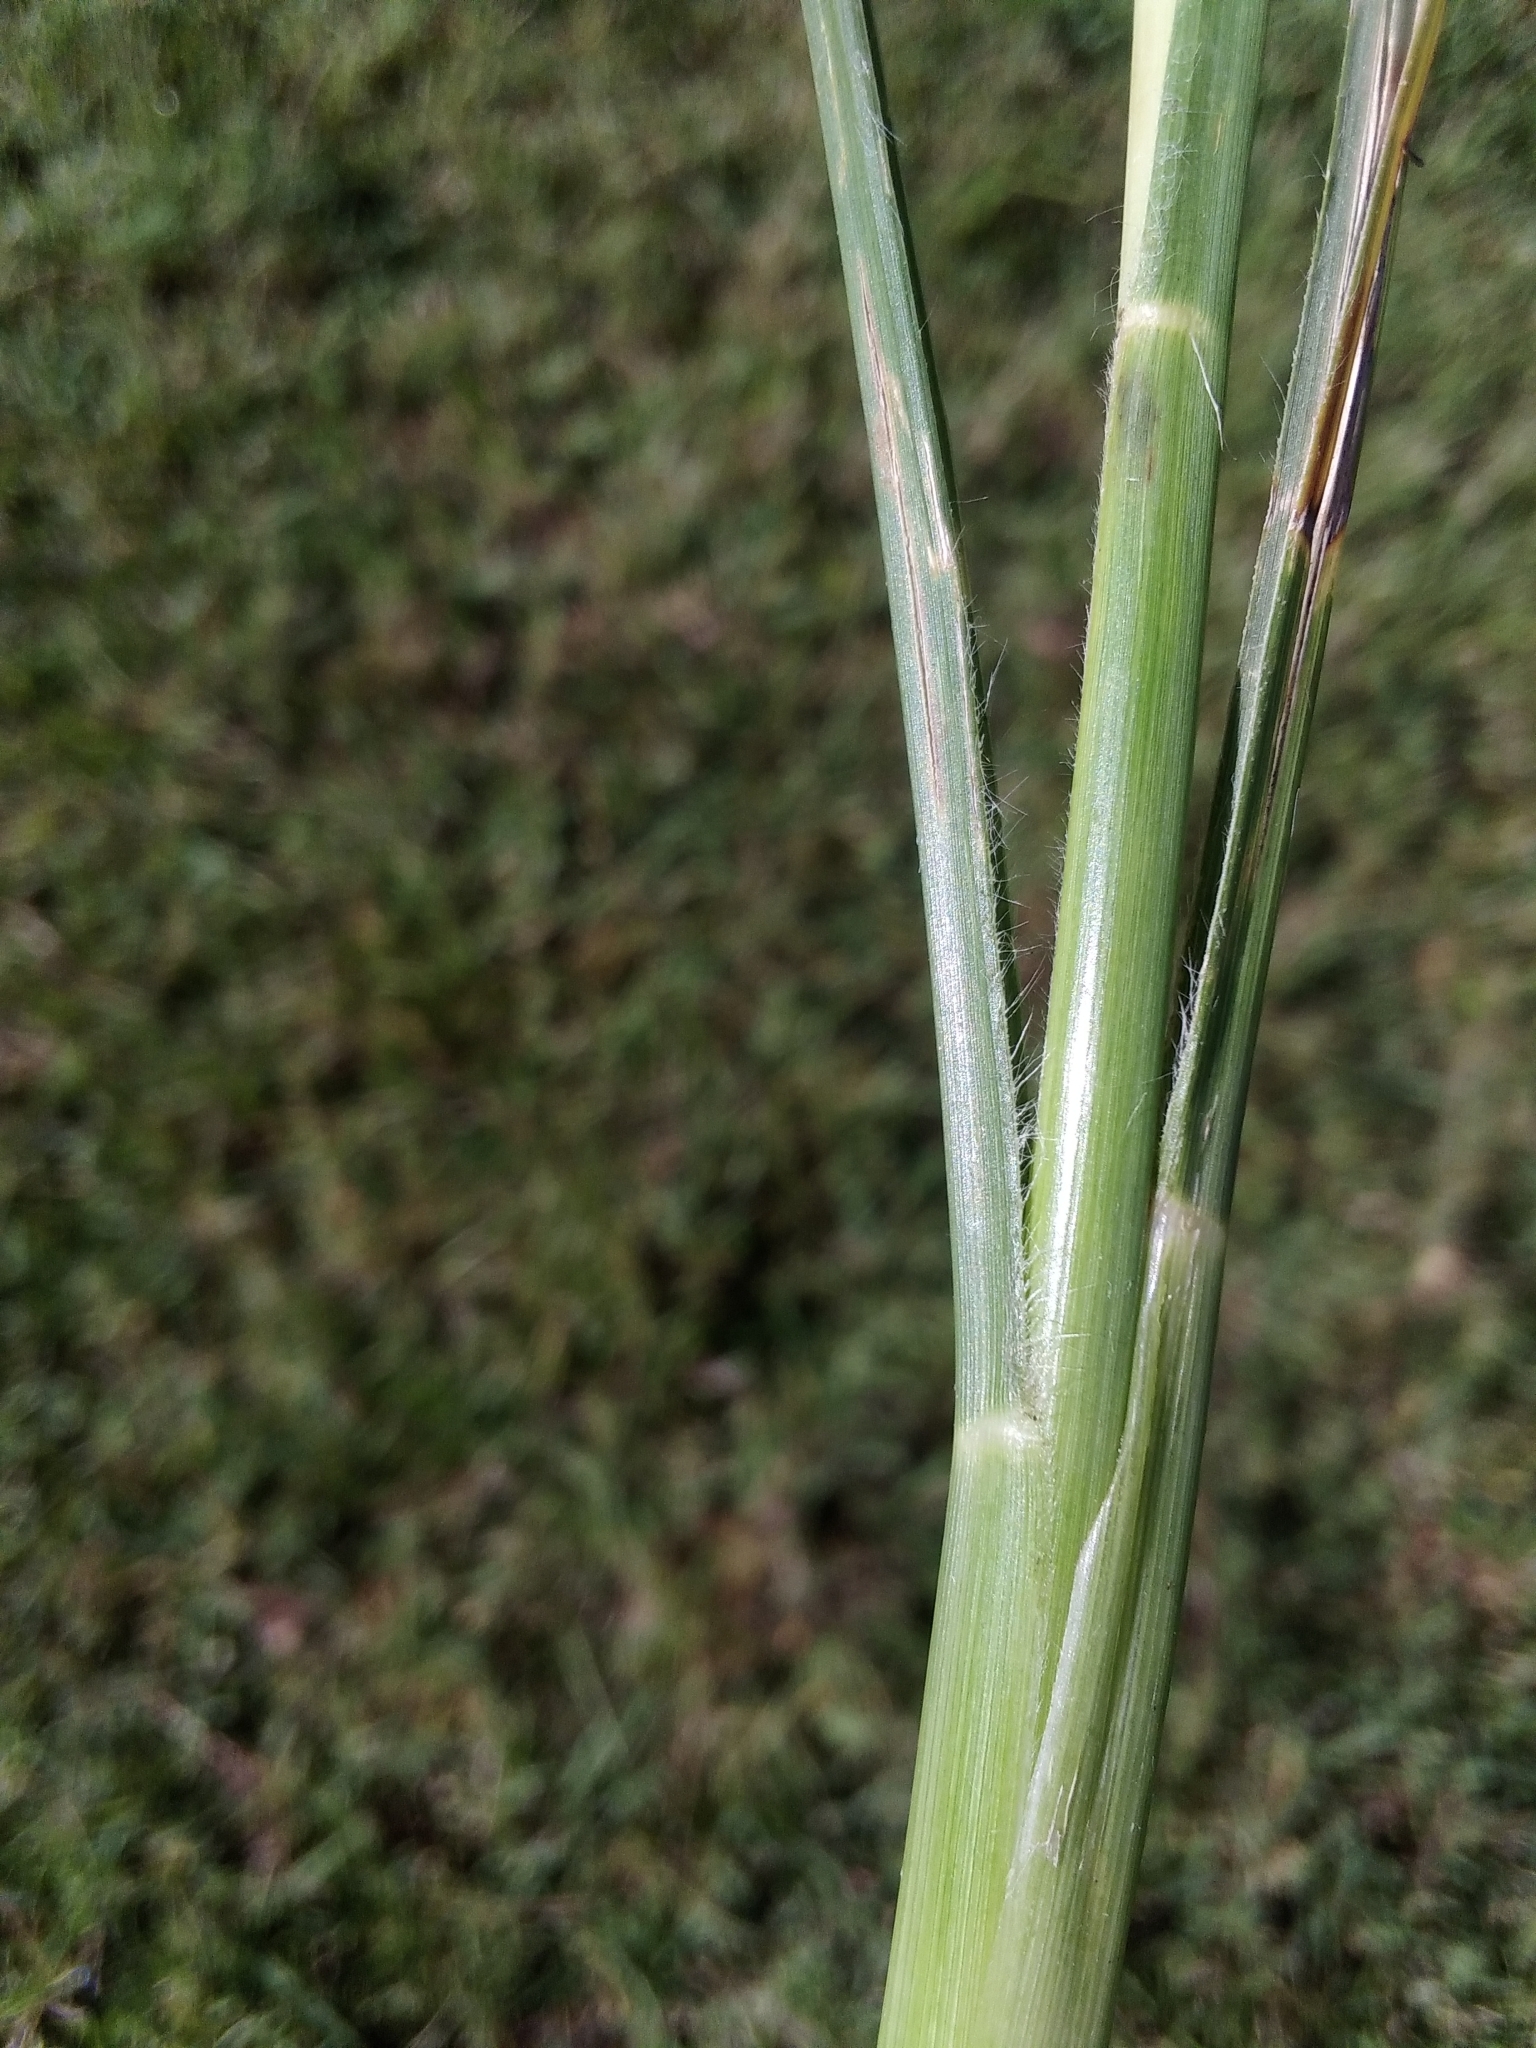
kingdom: Plantae
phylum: Tracheophyta
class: Liliopsida
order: Poales
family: Poaceae
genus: Cenchrus
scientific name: Cenchrus longisetus
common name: Feathertop
